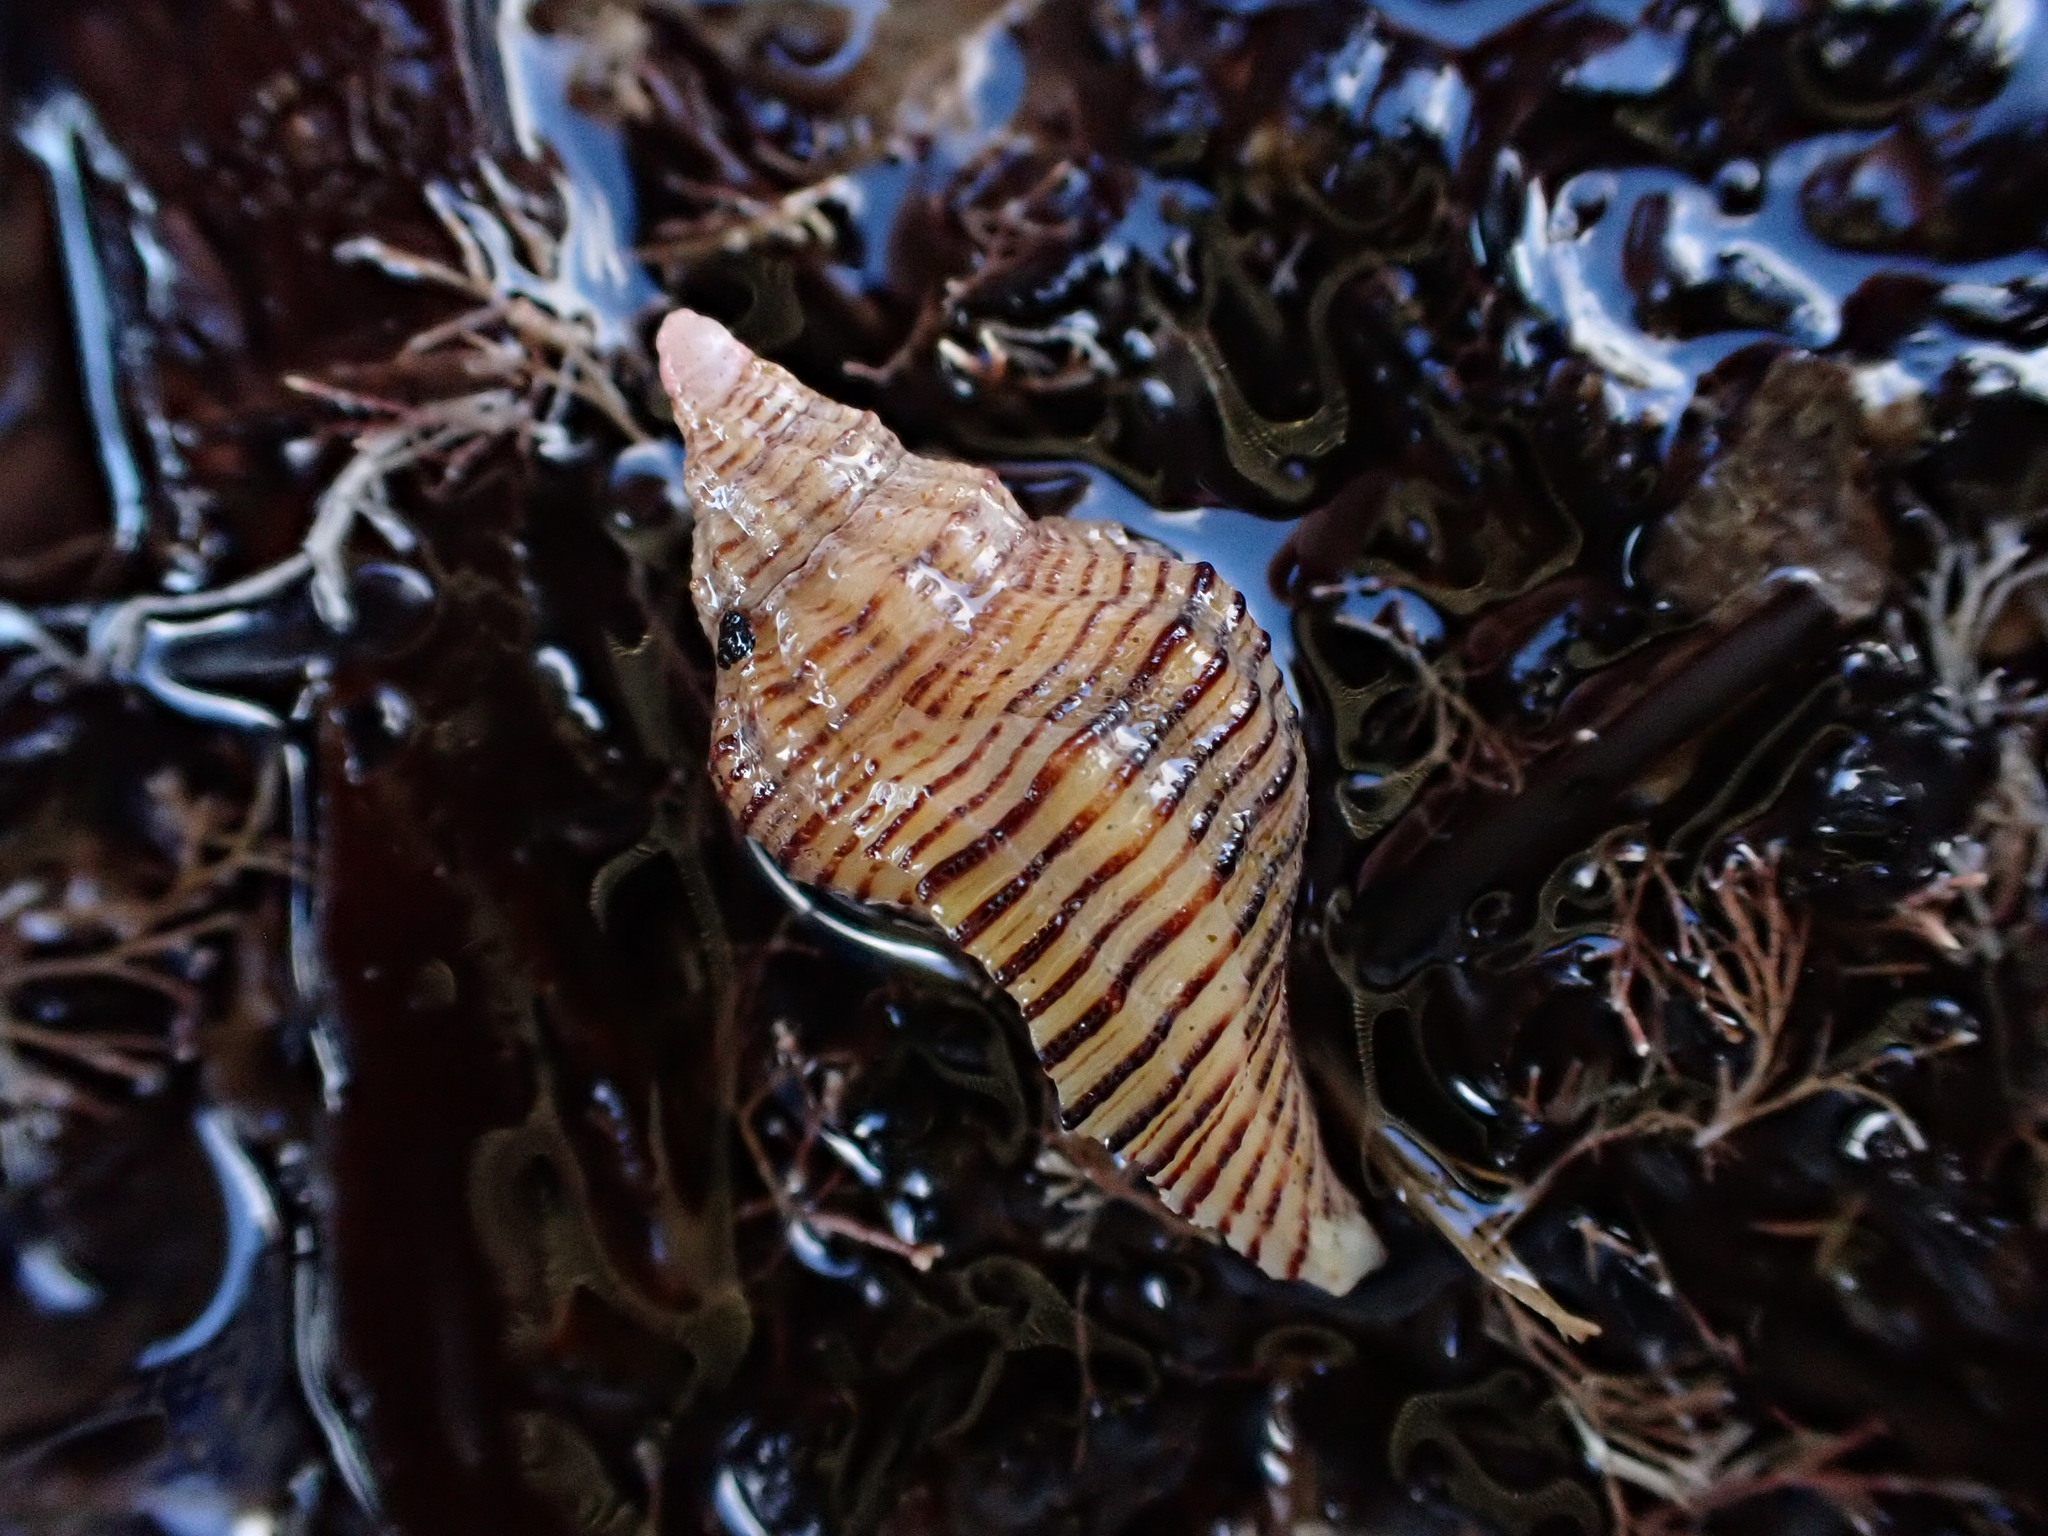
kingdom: Animalia
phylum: Mollusca
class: Gastropoda
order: Neogastropoda
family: Austrosiphonidae
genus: Penion
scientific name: Penion sulcatus
